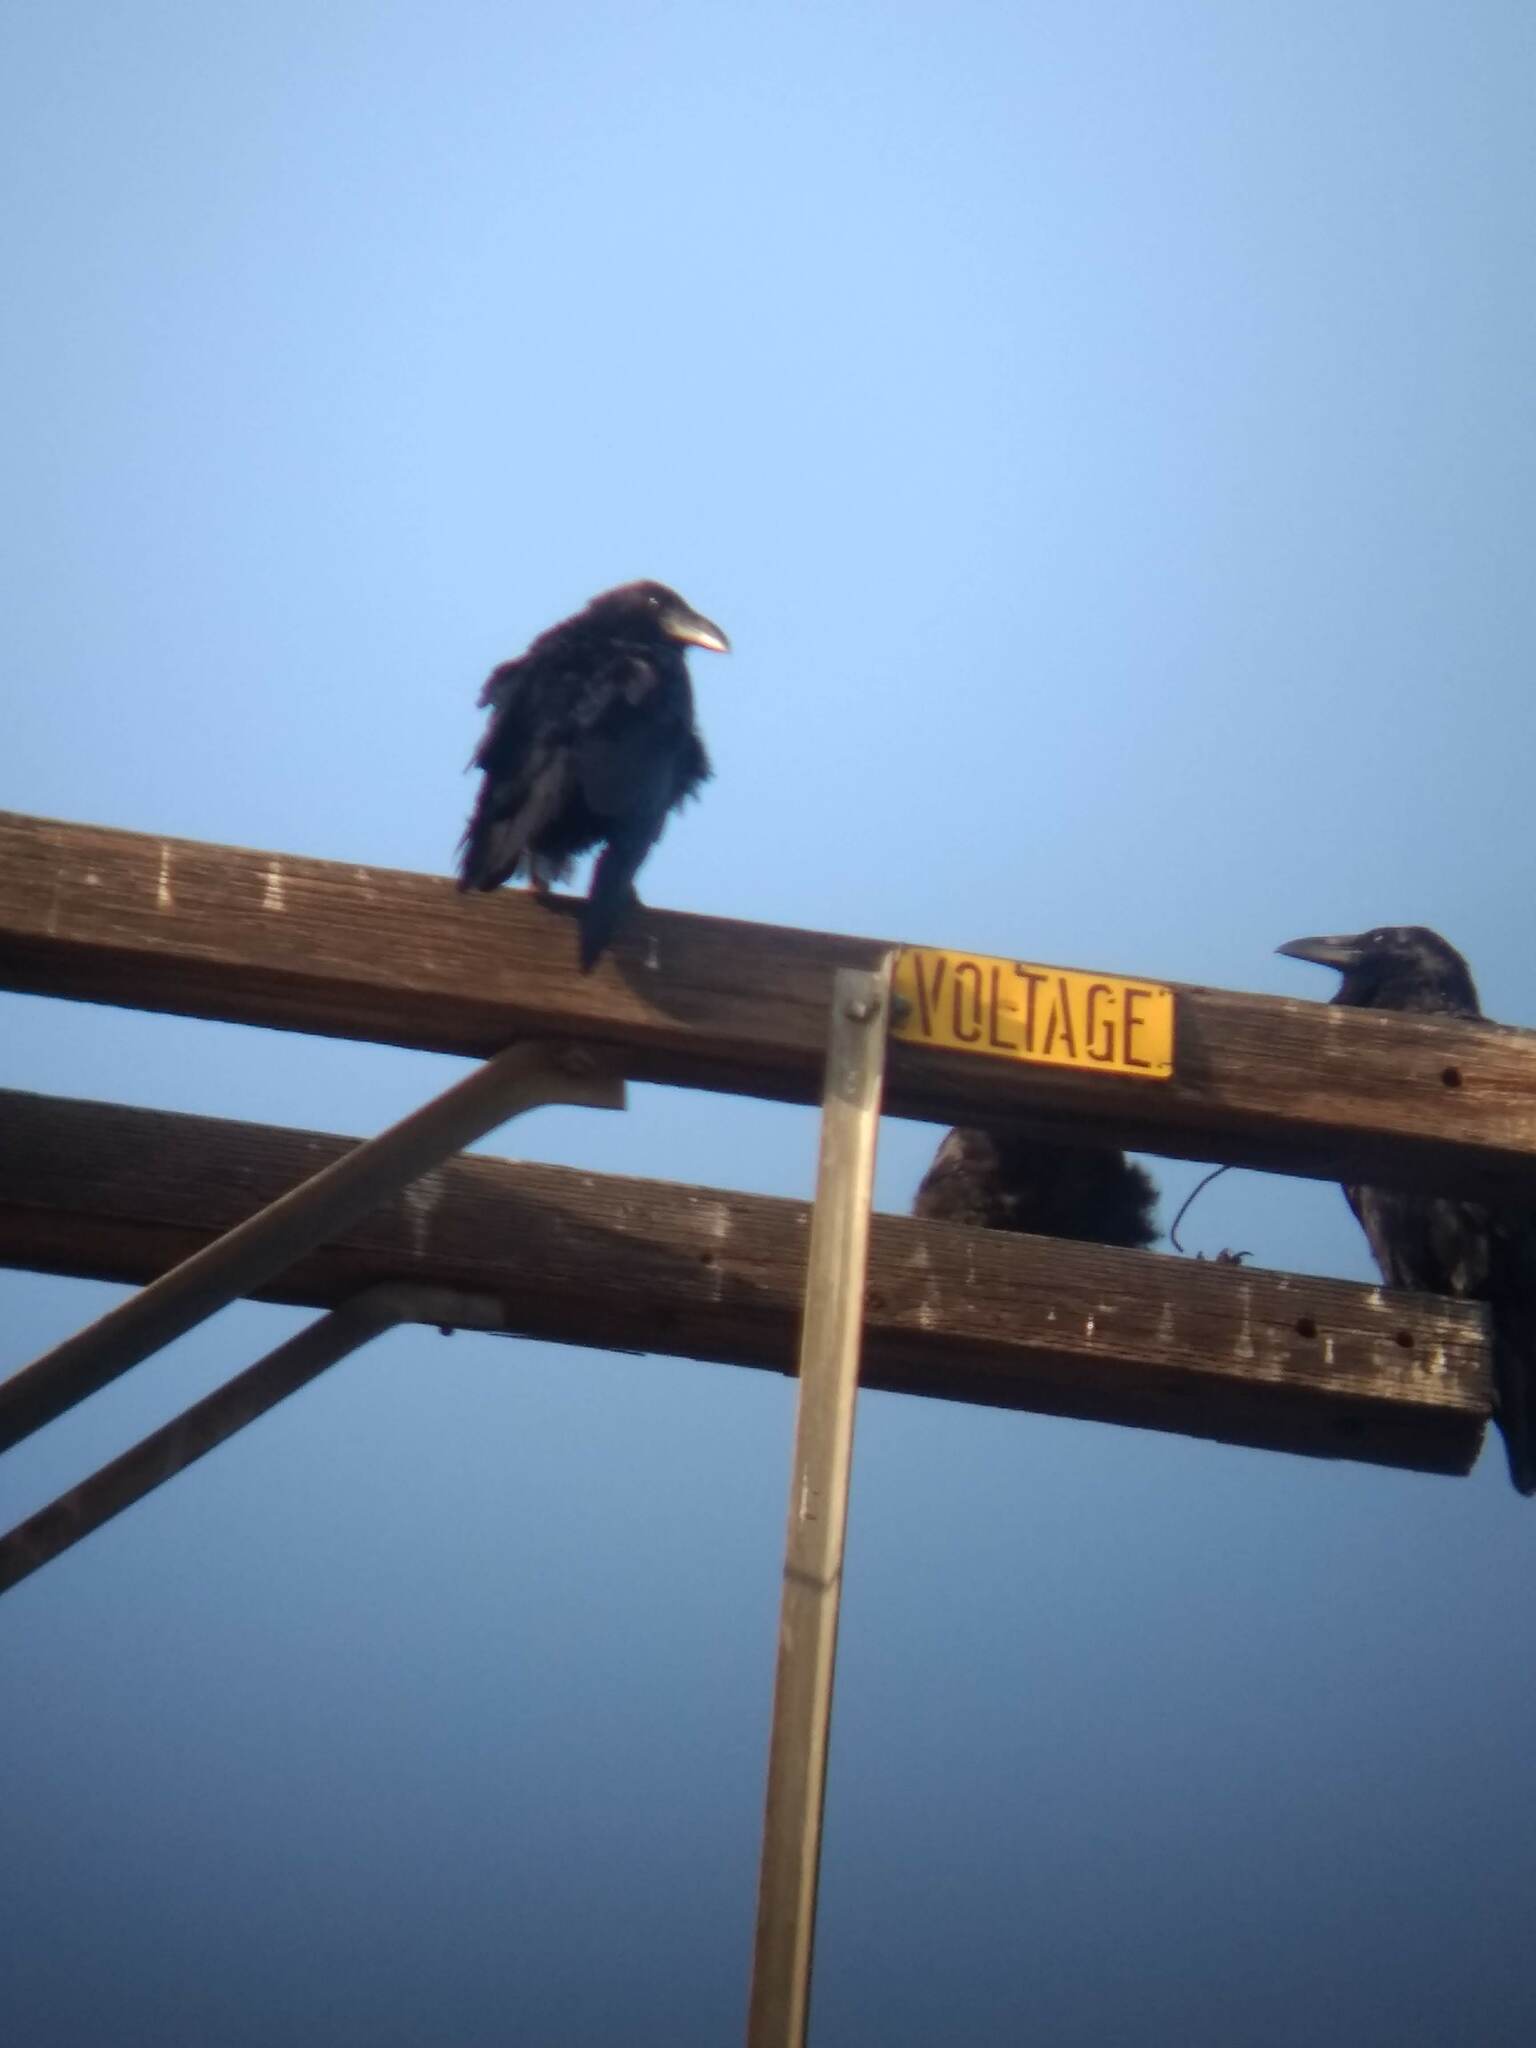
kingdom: Animalia
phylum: Chordata
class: Aves
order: Passeriformes
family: Corvidae
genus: Corvus
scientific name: Corvus corax
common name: Common raven
